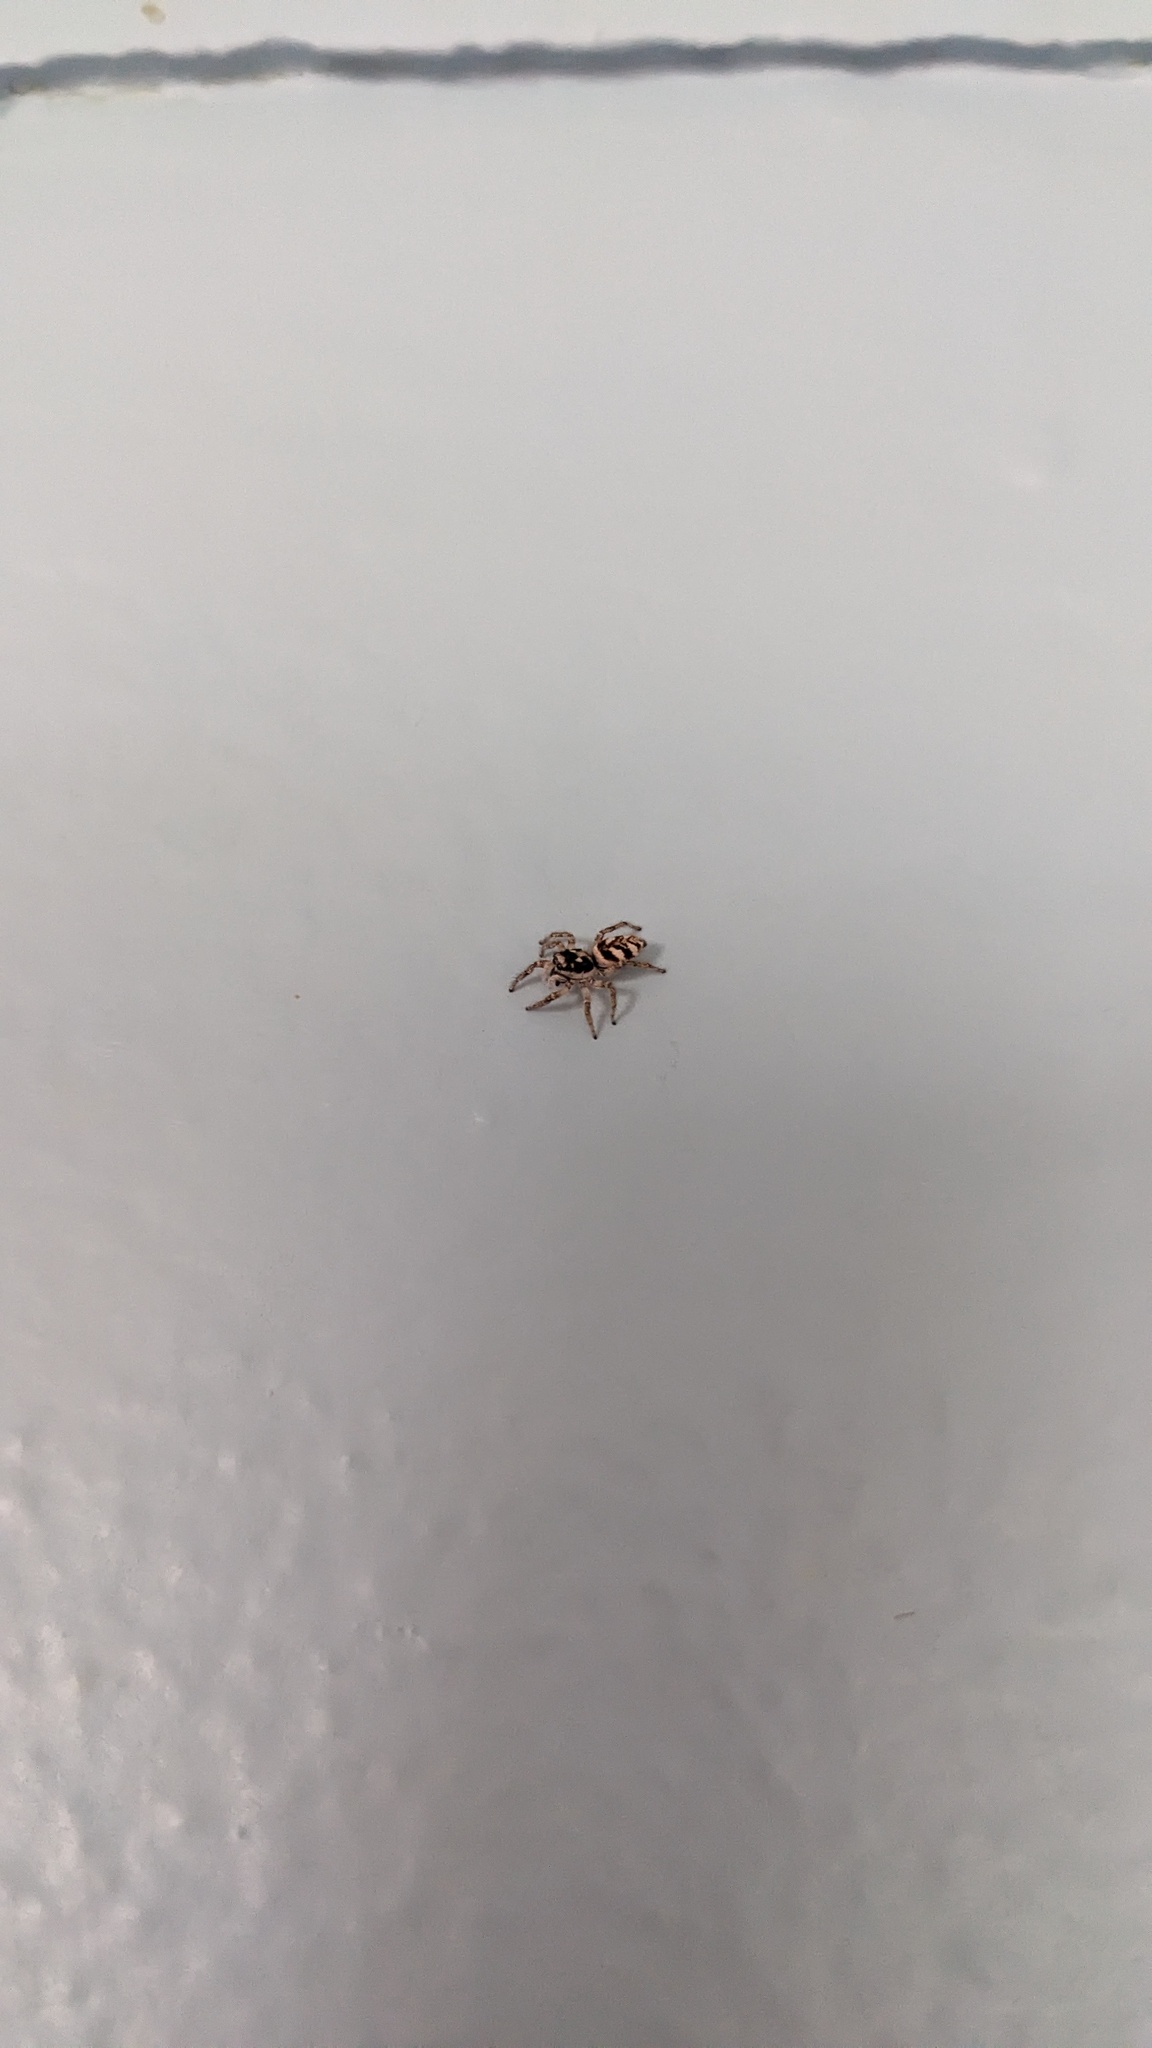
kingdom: Animalia
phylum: Arthropoda
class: Arachnida
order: Araneae
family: Salticidae
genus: Salticus
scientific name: Salticus scenicus
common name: Zebra jumper
